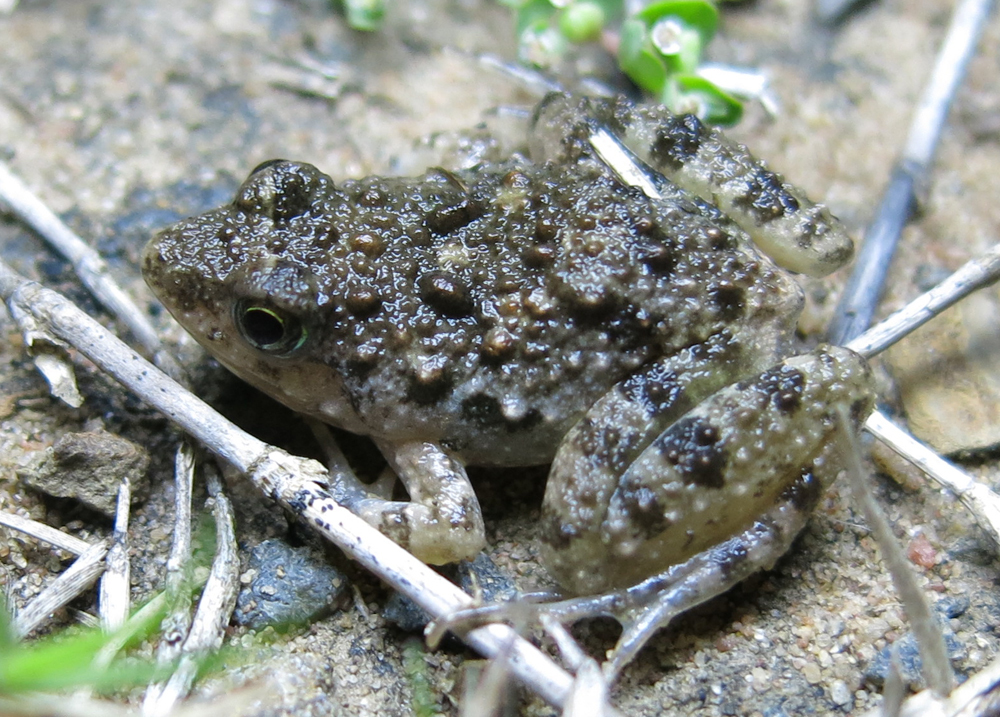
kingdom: Animalia
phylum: Chordata
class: Amphibia
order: Anura
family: Phrynobatrachidae
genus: Phrynobatrachus
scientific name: Phrynobatrachus natalensis
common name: Snoring puddle frog
